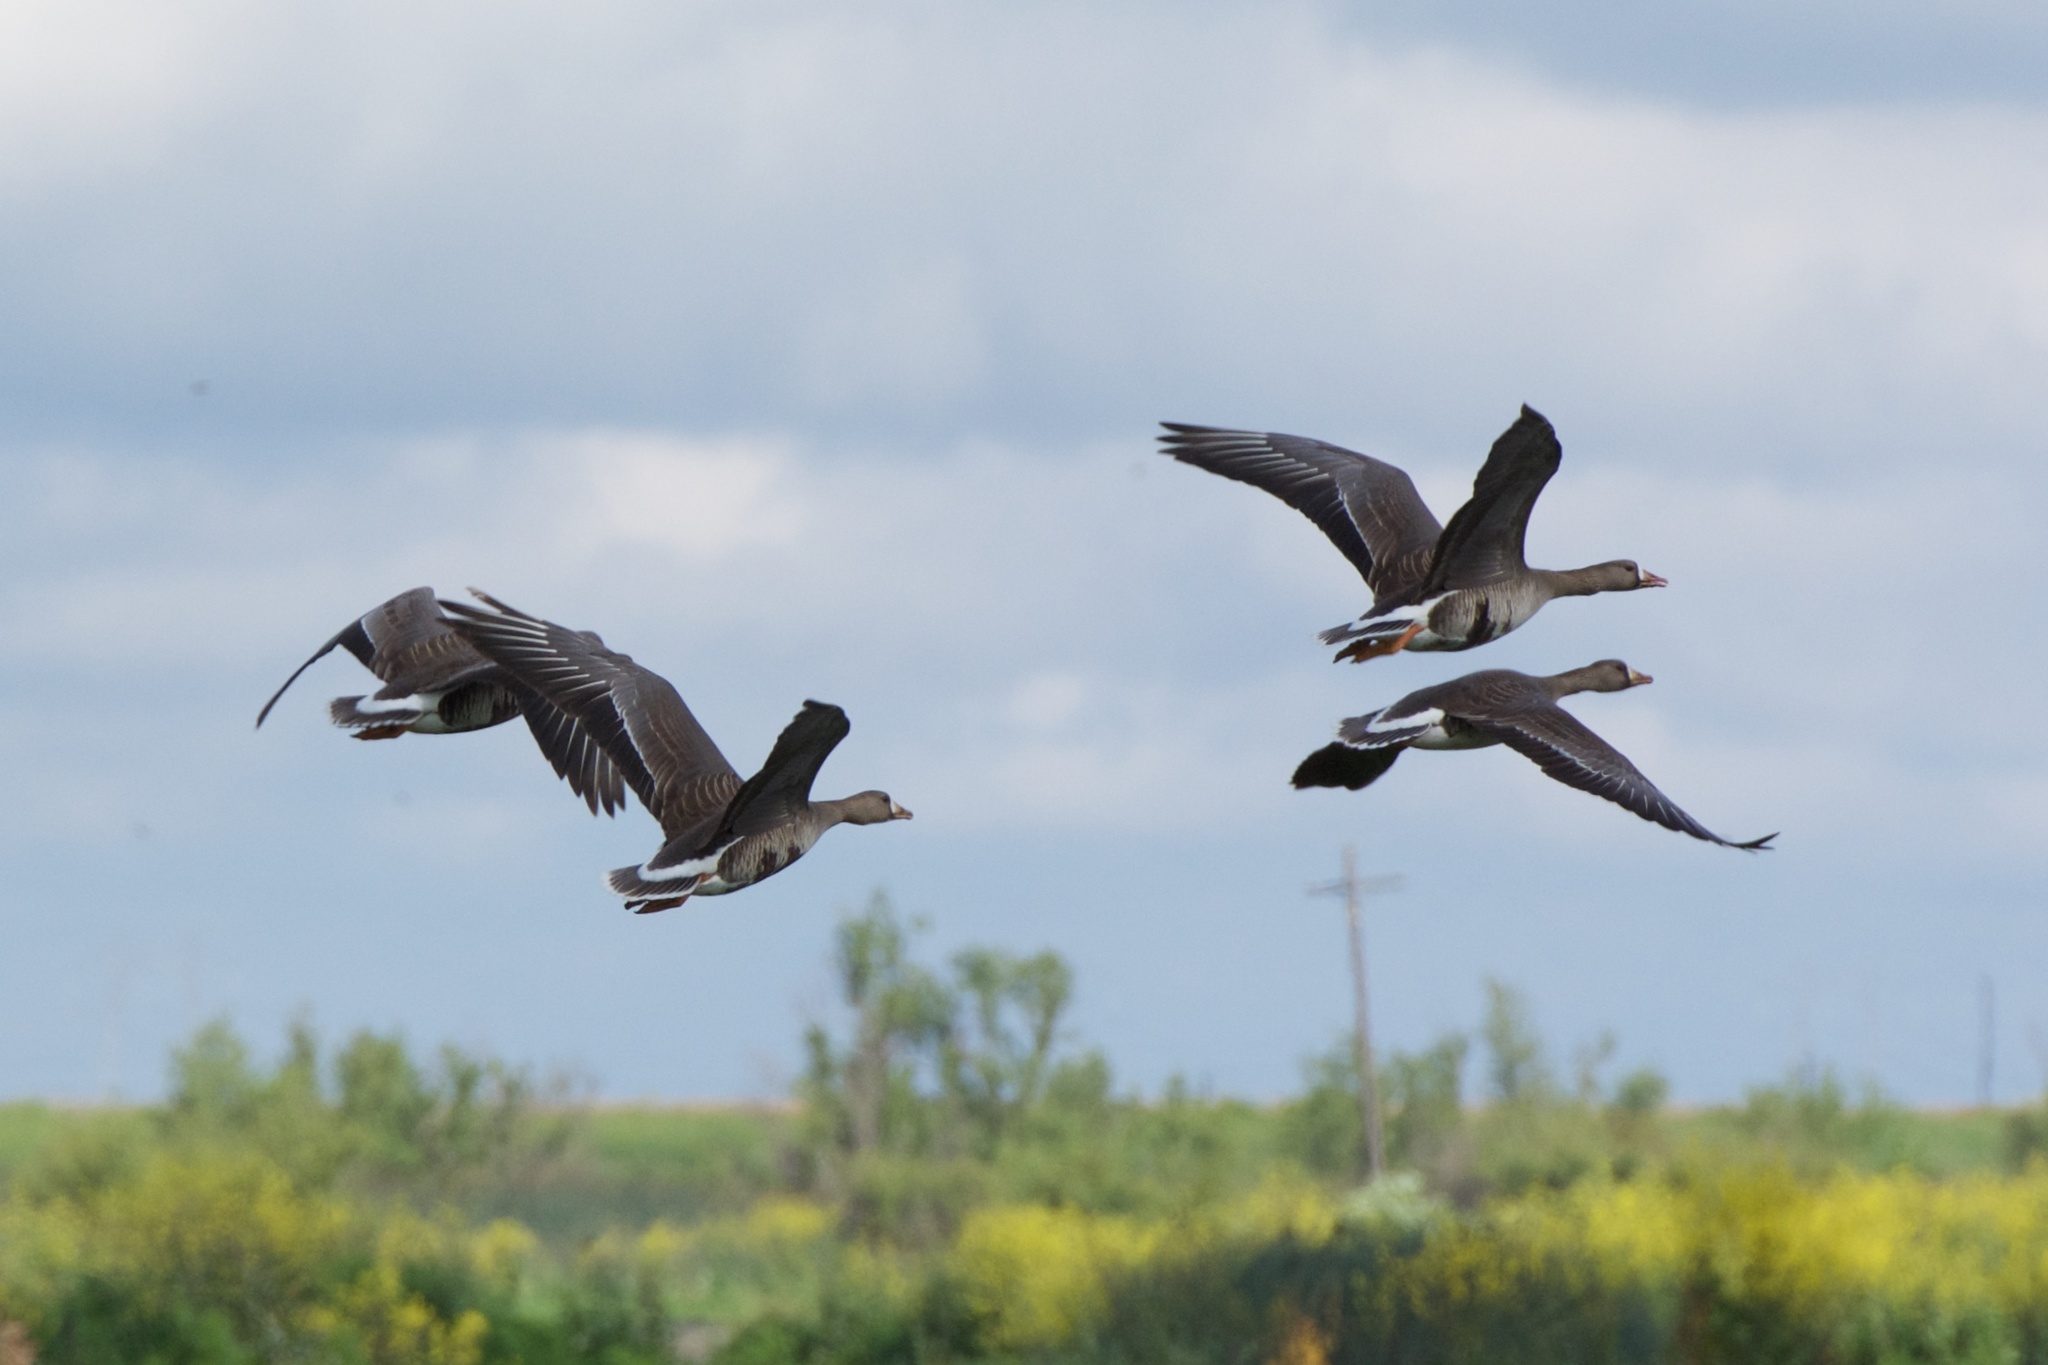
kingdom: Animalia
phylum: Chordata
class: Aves
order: Anseriformes
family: Anatidae
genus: Anser
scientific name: Anser albifrons
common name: Greater white-fronted goose
